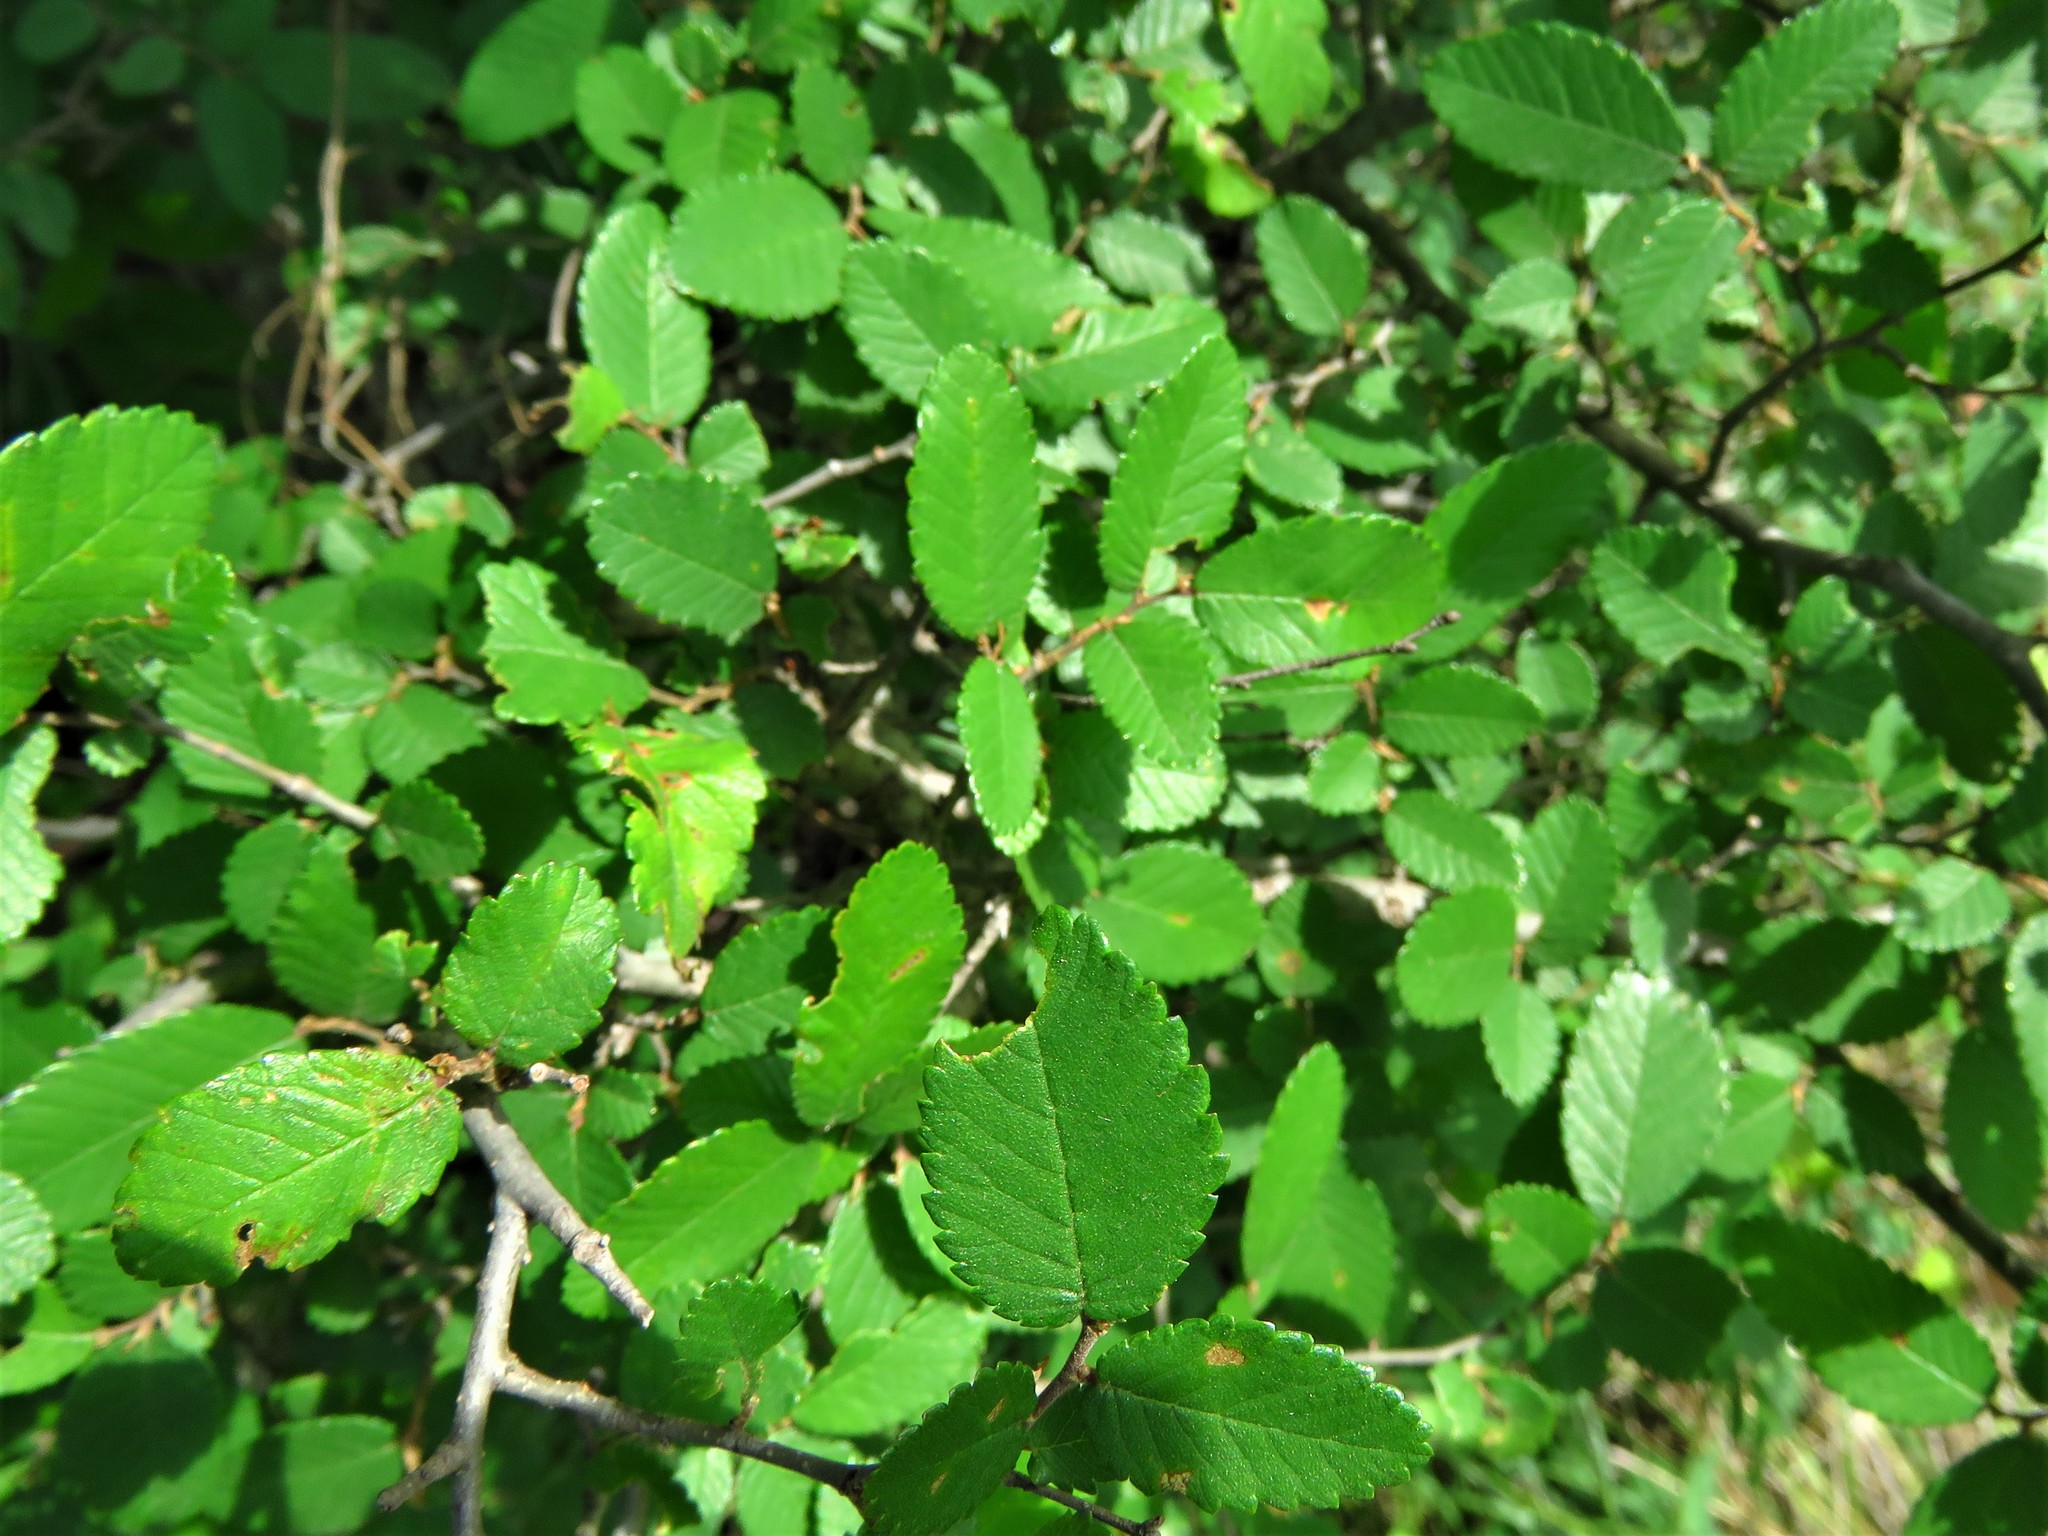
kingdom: Plantae
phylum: Tracheophyta
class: Magnoliopsida
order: Rosales
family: Ulmaceae
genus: Ulmus
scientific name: Ulmus crassifolia
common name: Basket elm
